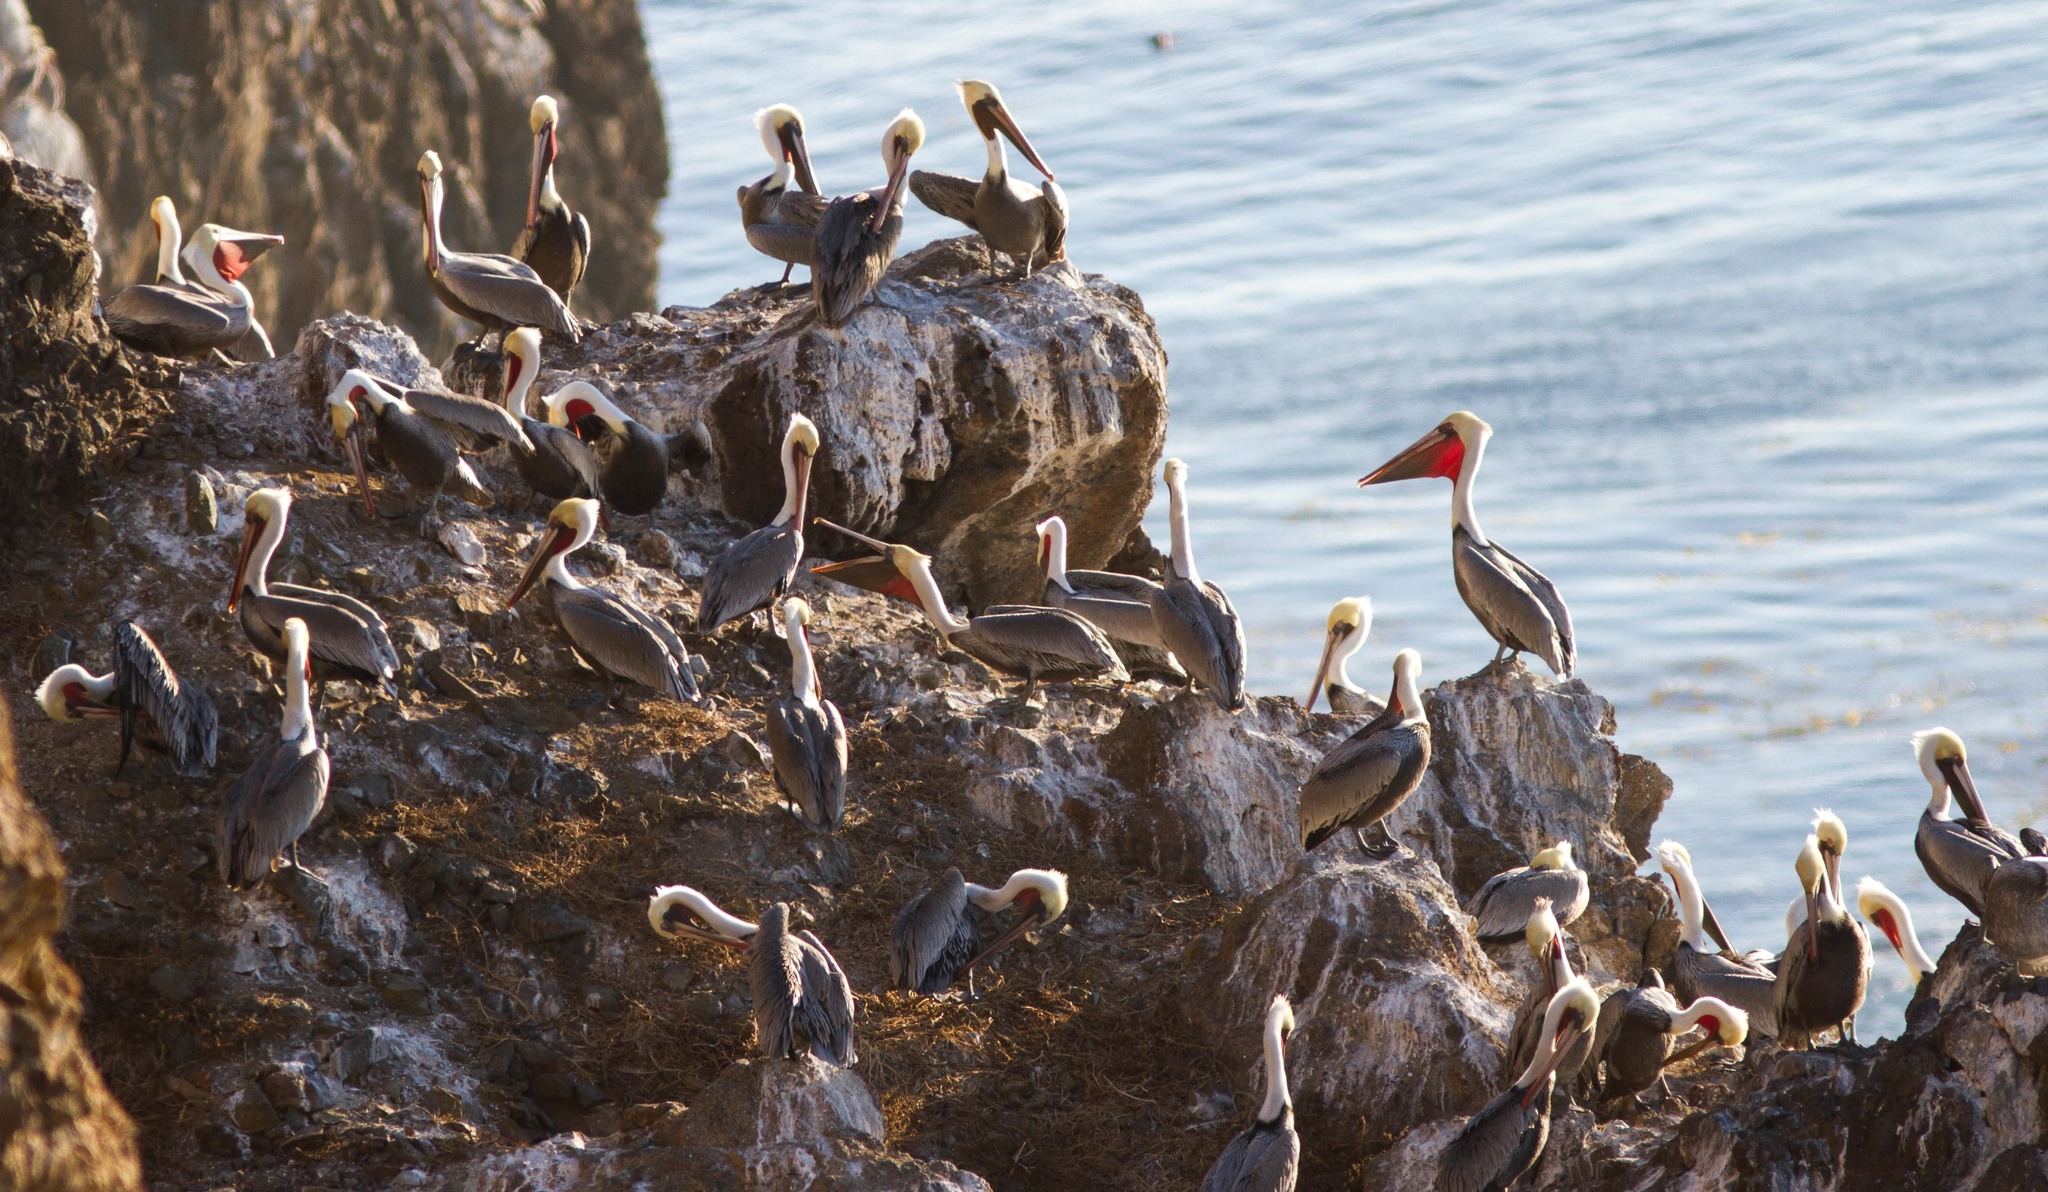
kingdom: Animalia
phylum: Chordata
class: Aves
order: Pelecaniformes
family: Pelecanidae
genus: Pelecanus
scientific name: Pelecanus occidentalis
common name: Brown pelican
